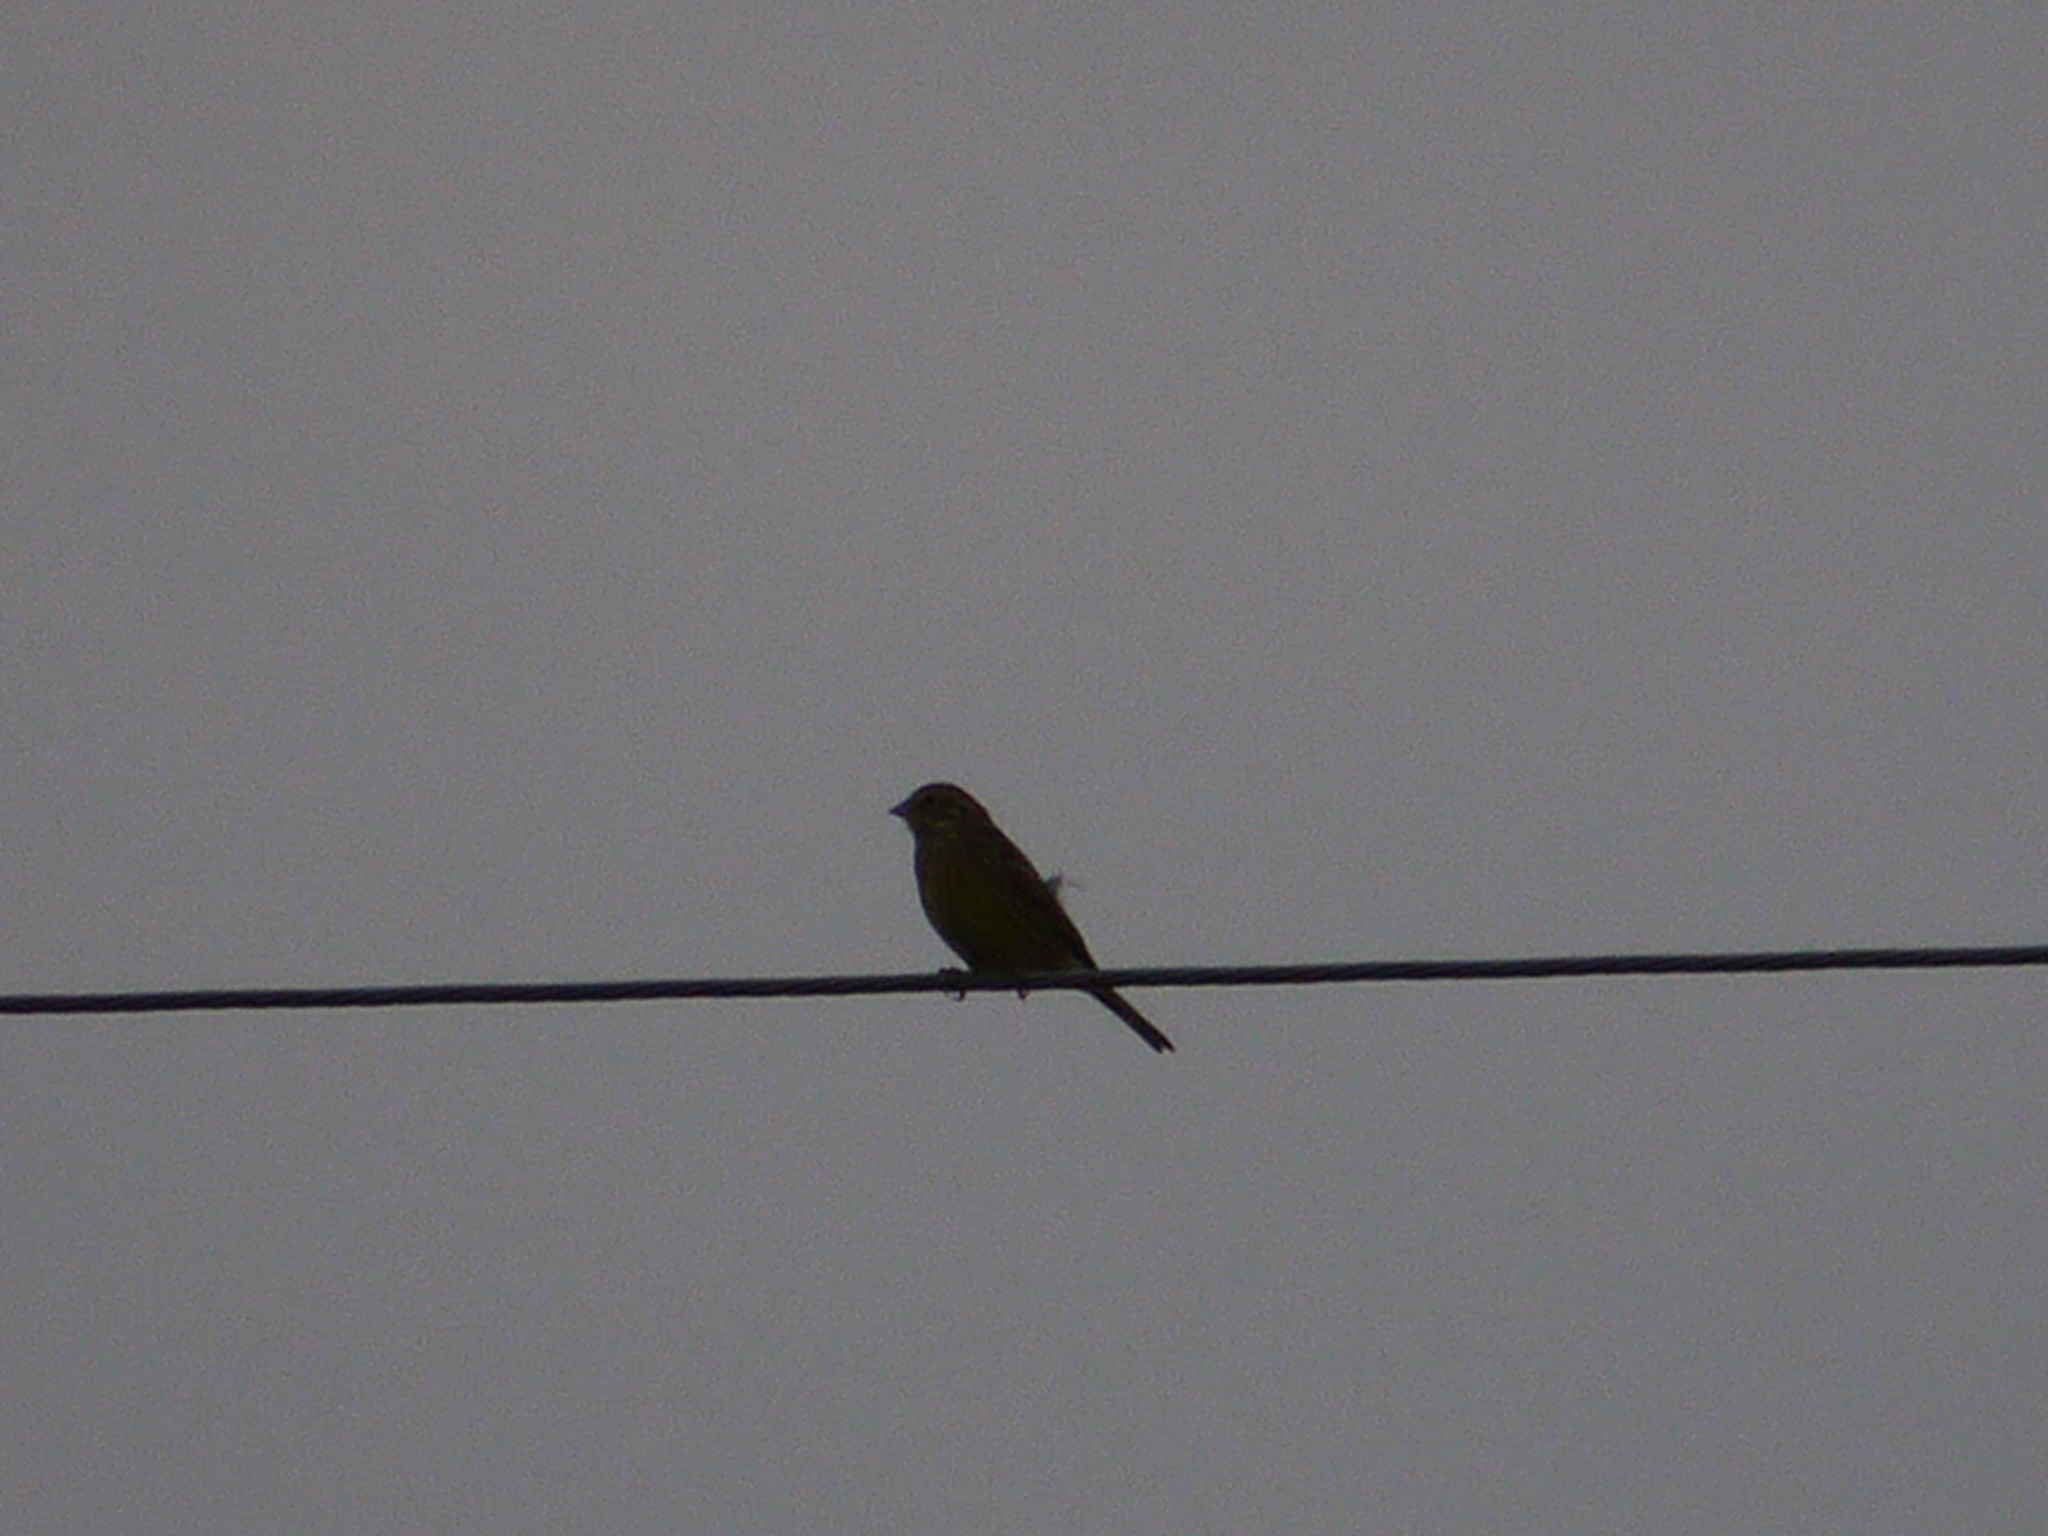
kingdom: Animalia
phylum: Chordata
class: Aves
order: Passeriformes
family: Emberizidae
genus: Emberiza
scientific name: Emberiza citrinella
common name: Yellowhammer
